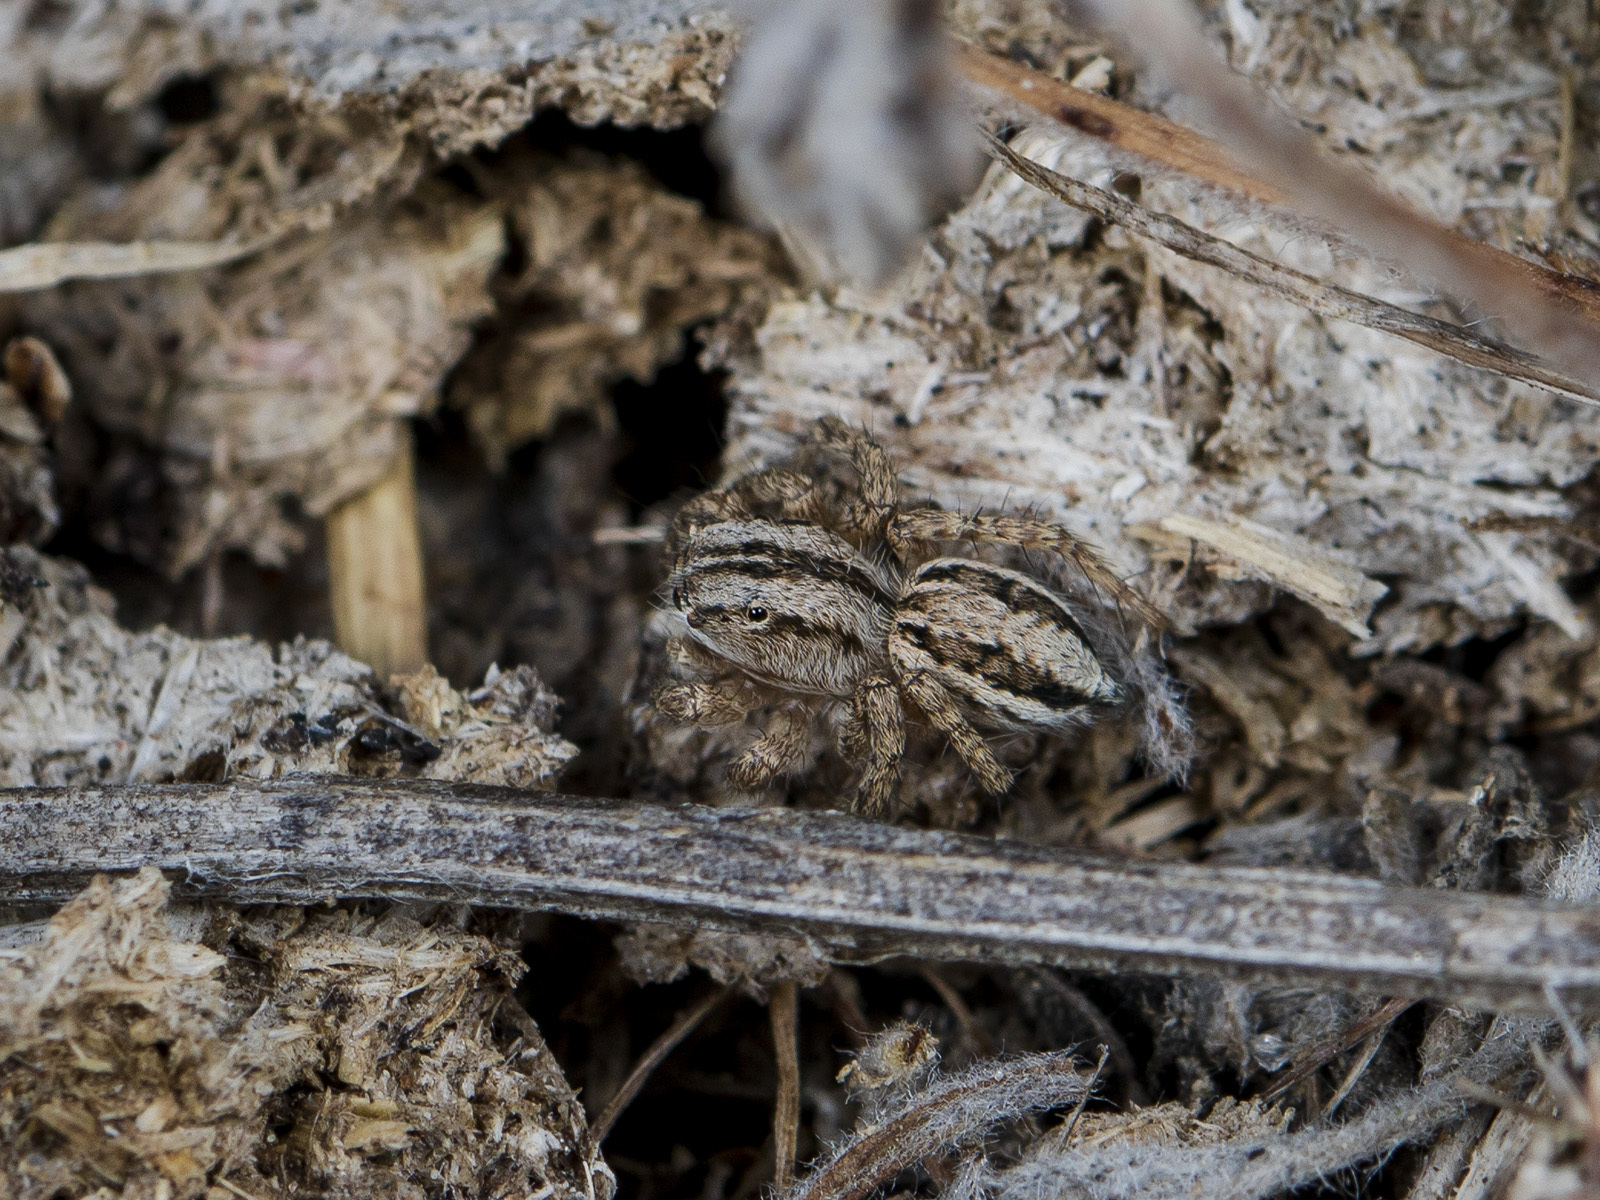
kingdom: Animalia
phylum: Arthropoda
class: Arachnida
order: Araneae
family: Salticidae
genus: Aelurillus
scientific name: Aelurillus m-nigrum
